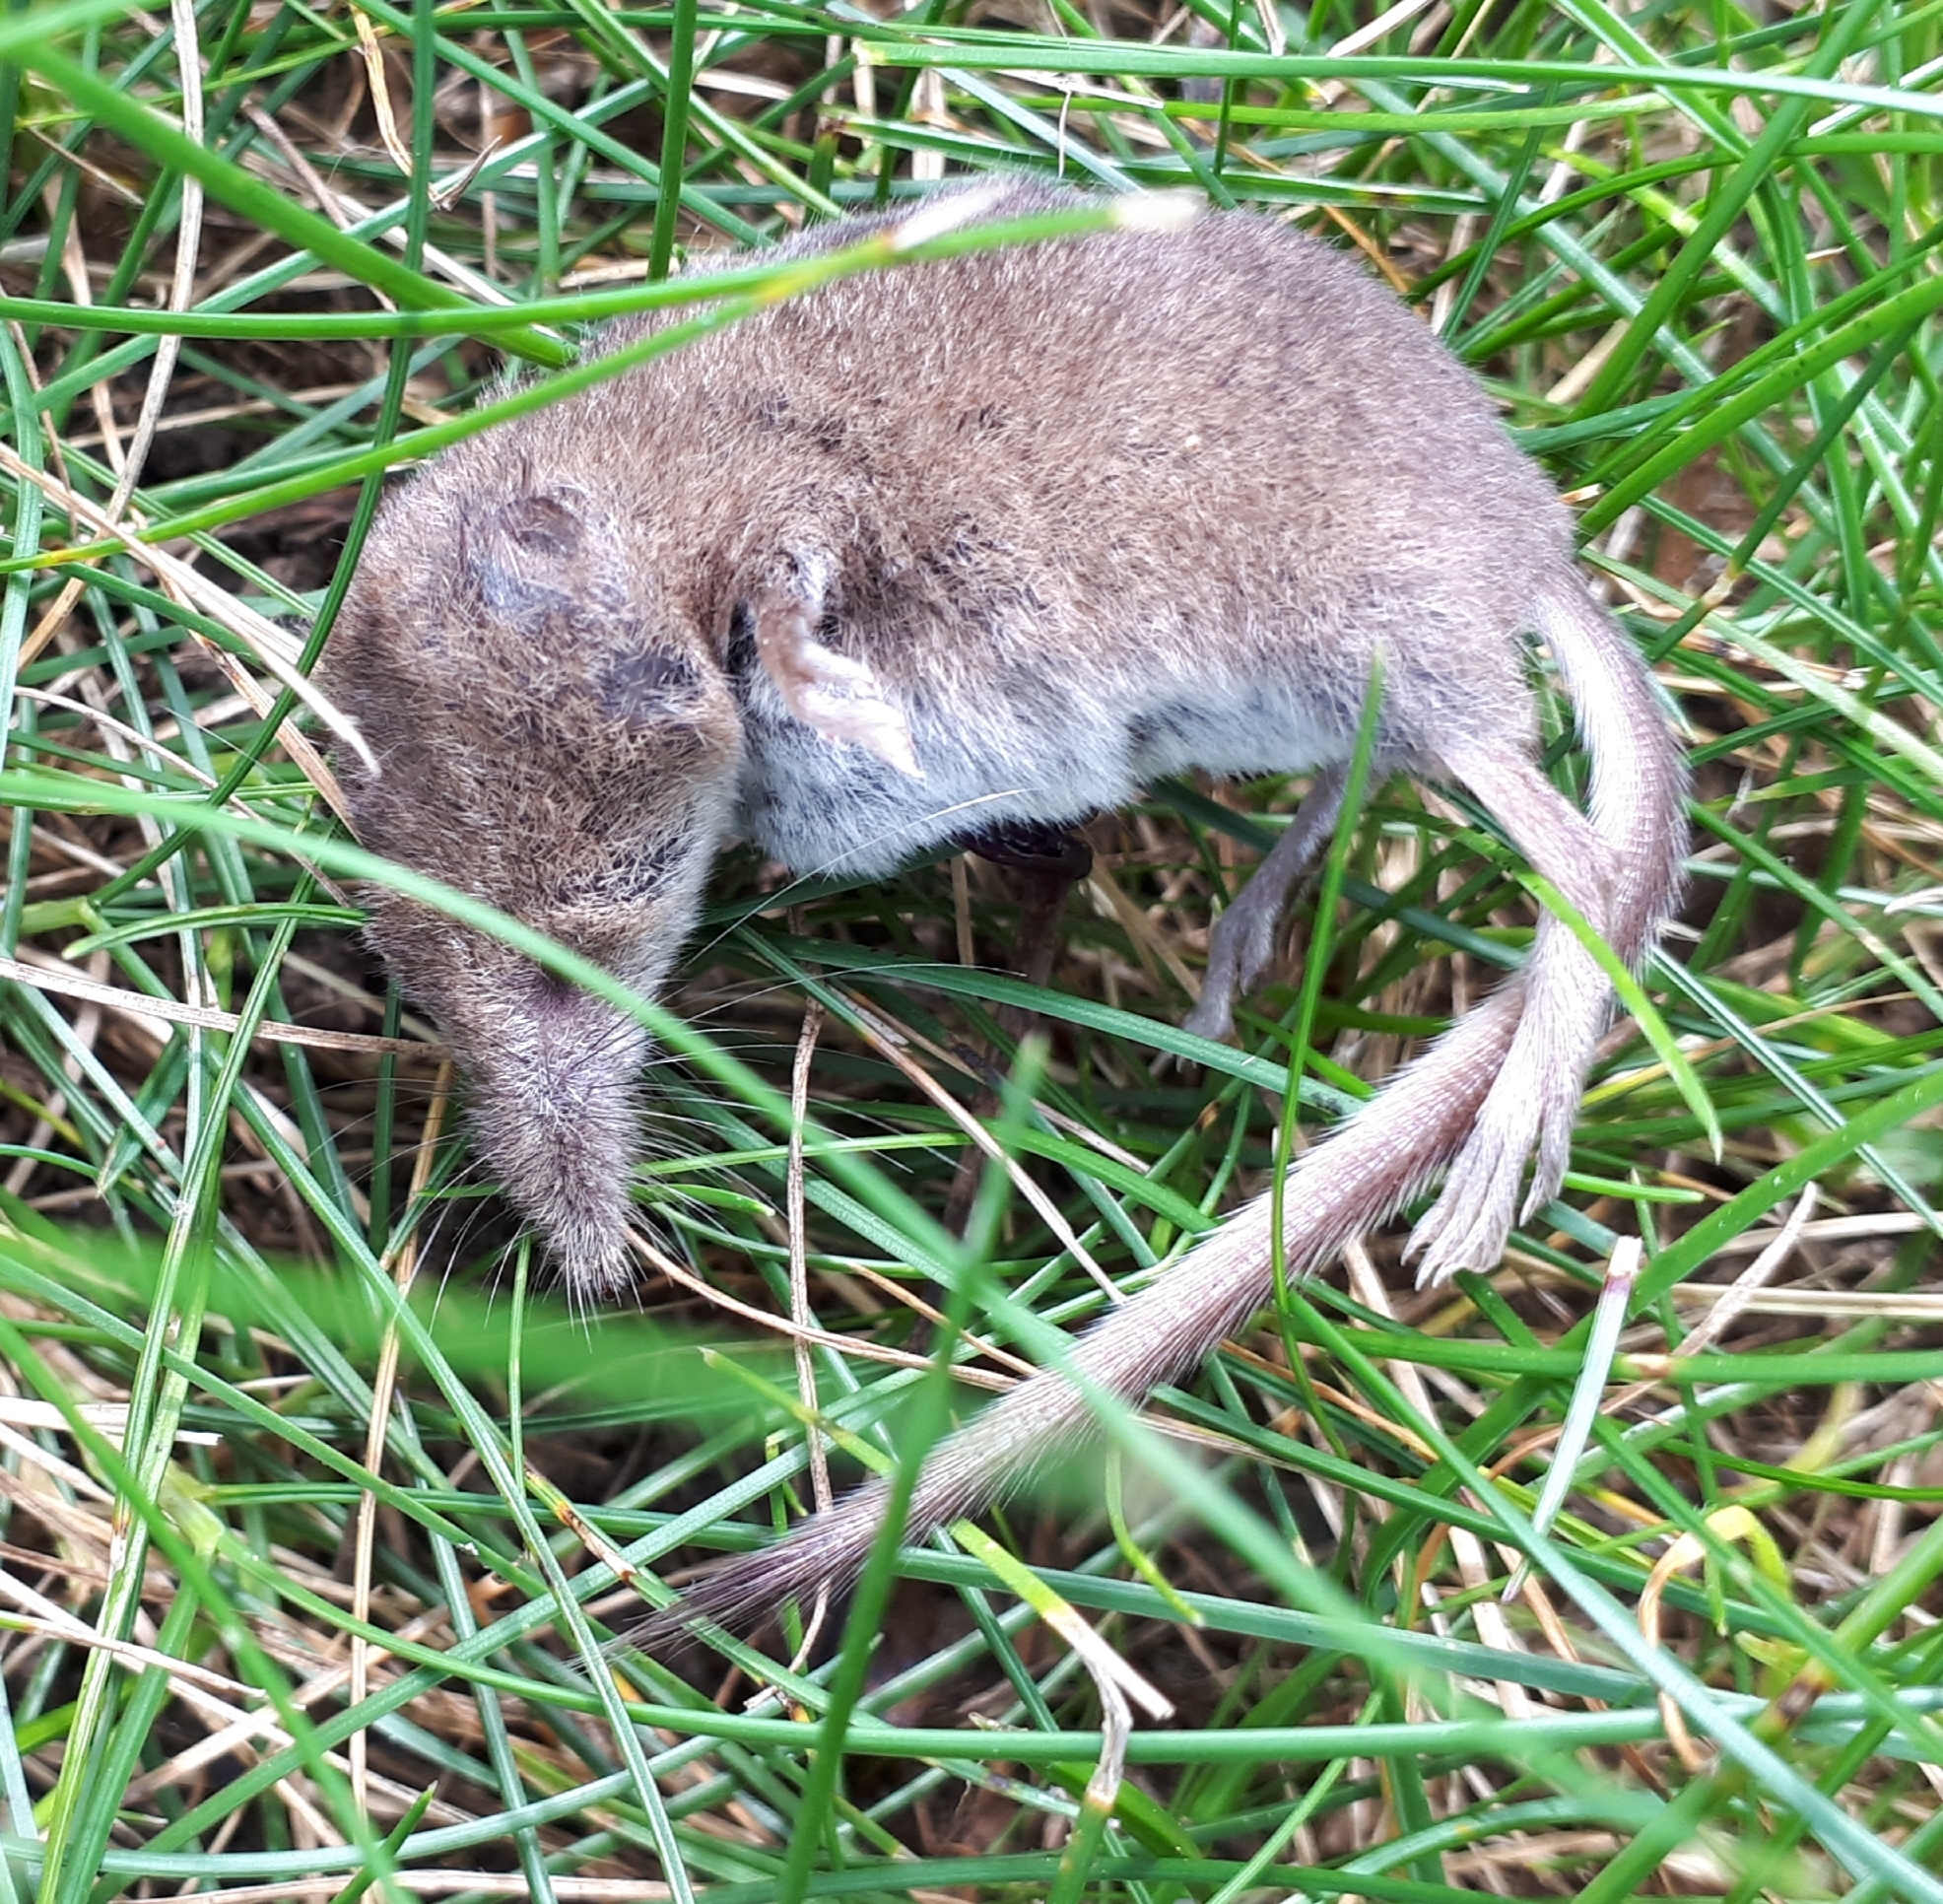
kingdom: Animalia
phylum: Chordata
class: Mammalia
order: Soricomorpha
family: Soricidae
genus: Sorex
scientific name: Sorex cinereus
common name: Cinereus shrew
